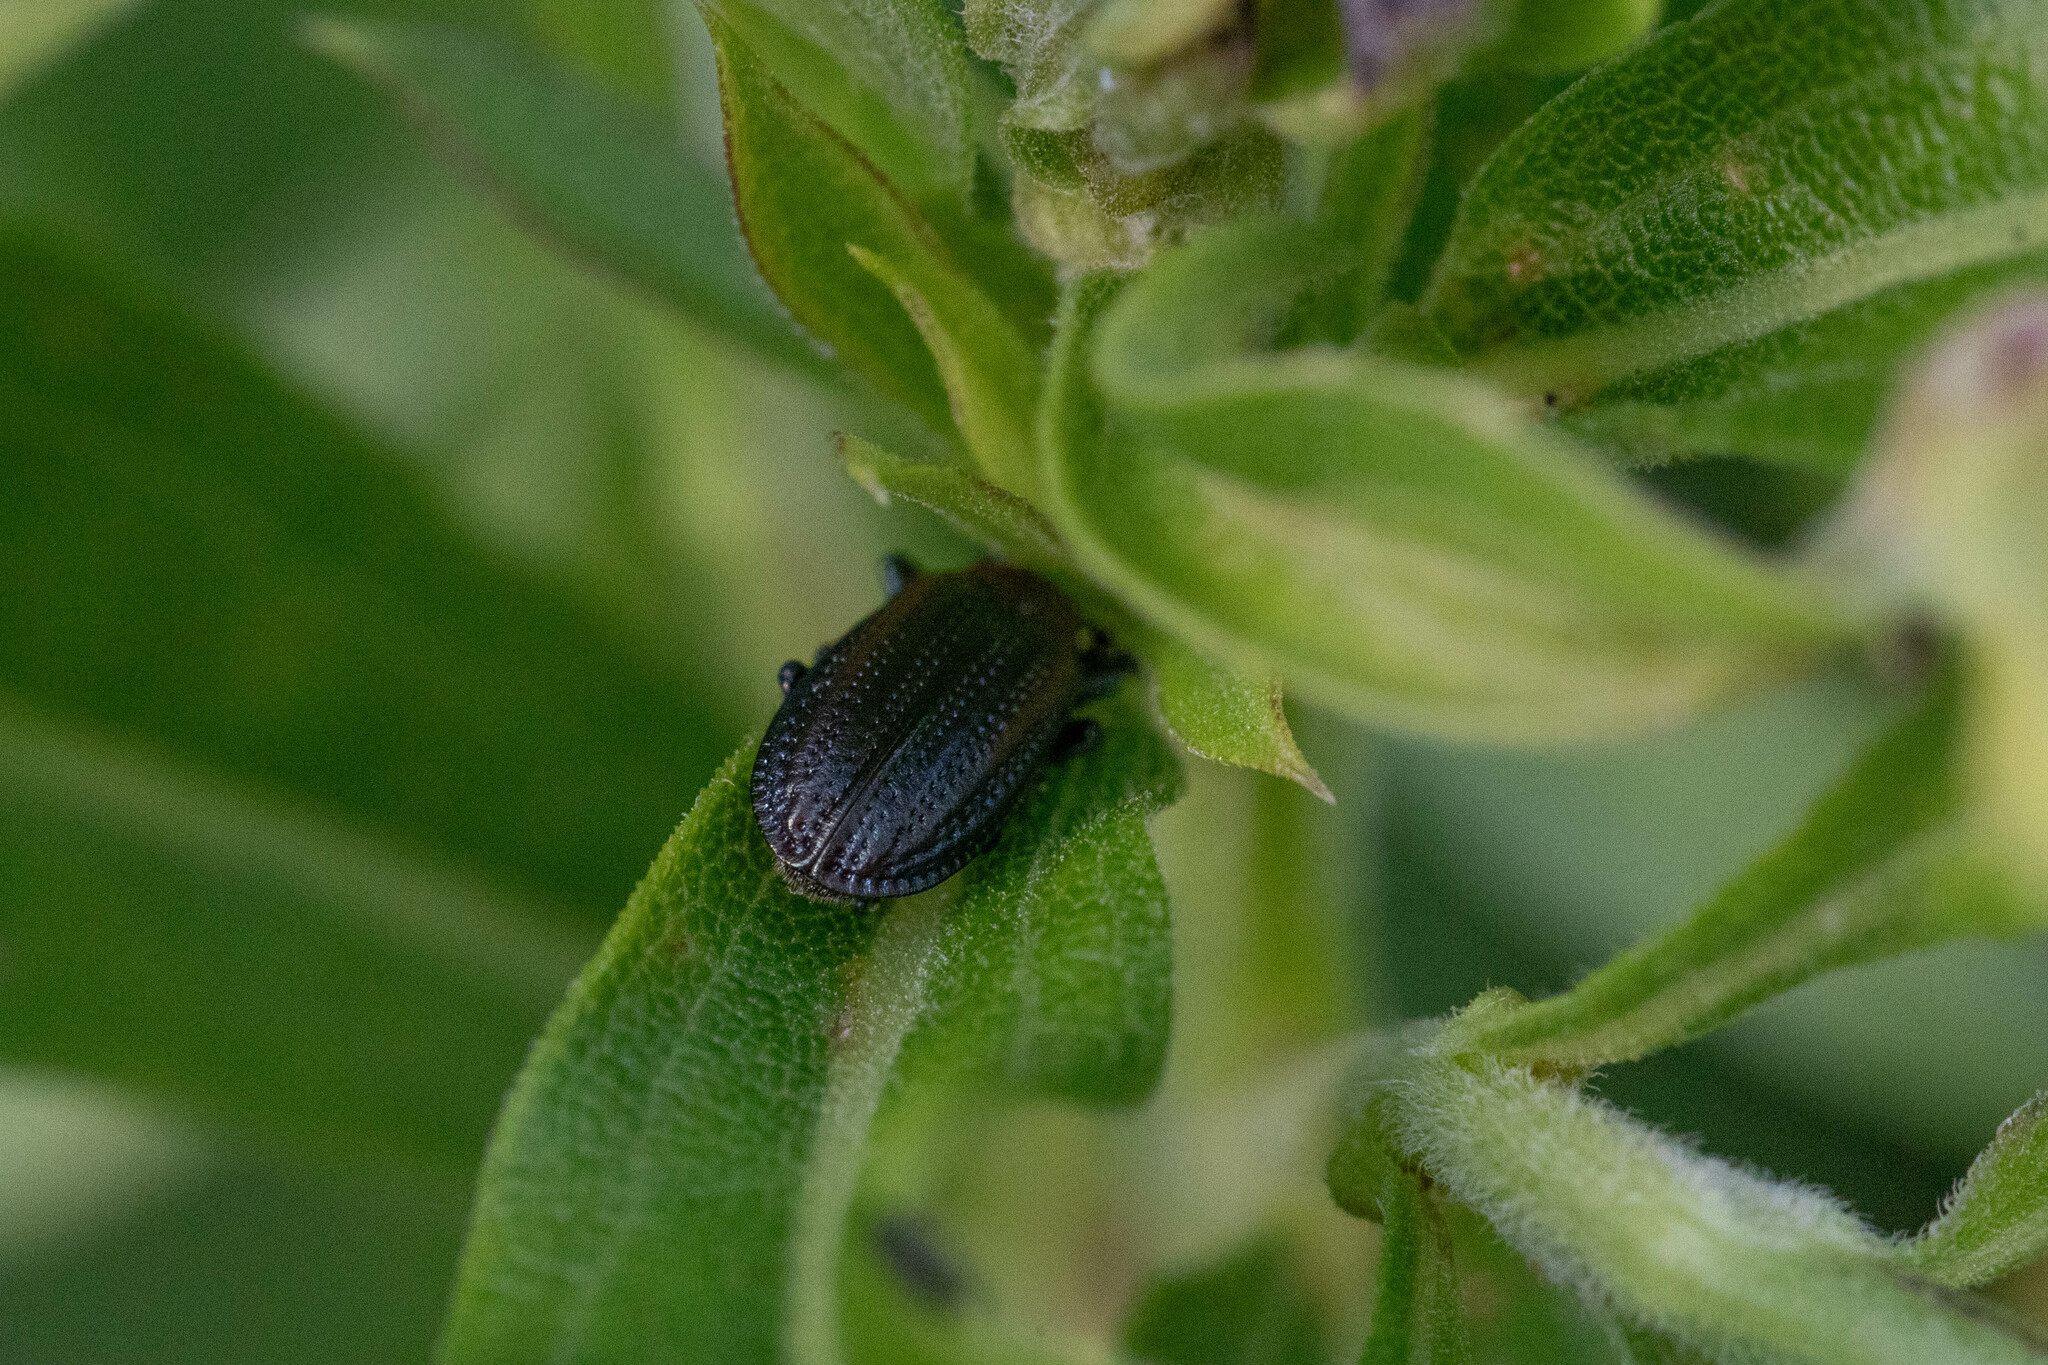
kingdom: Animalia
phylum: Arthropoda
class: Insecta
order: Coleoptera
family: Chrysomelidae
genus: Microrhopala
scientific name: Microrhopala vittata
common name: Goldenrod leaf miner beetle
